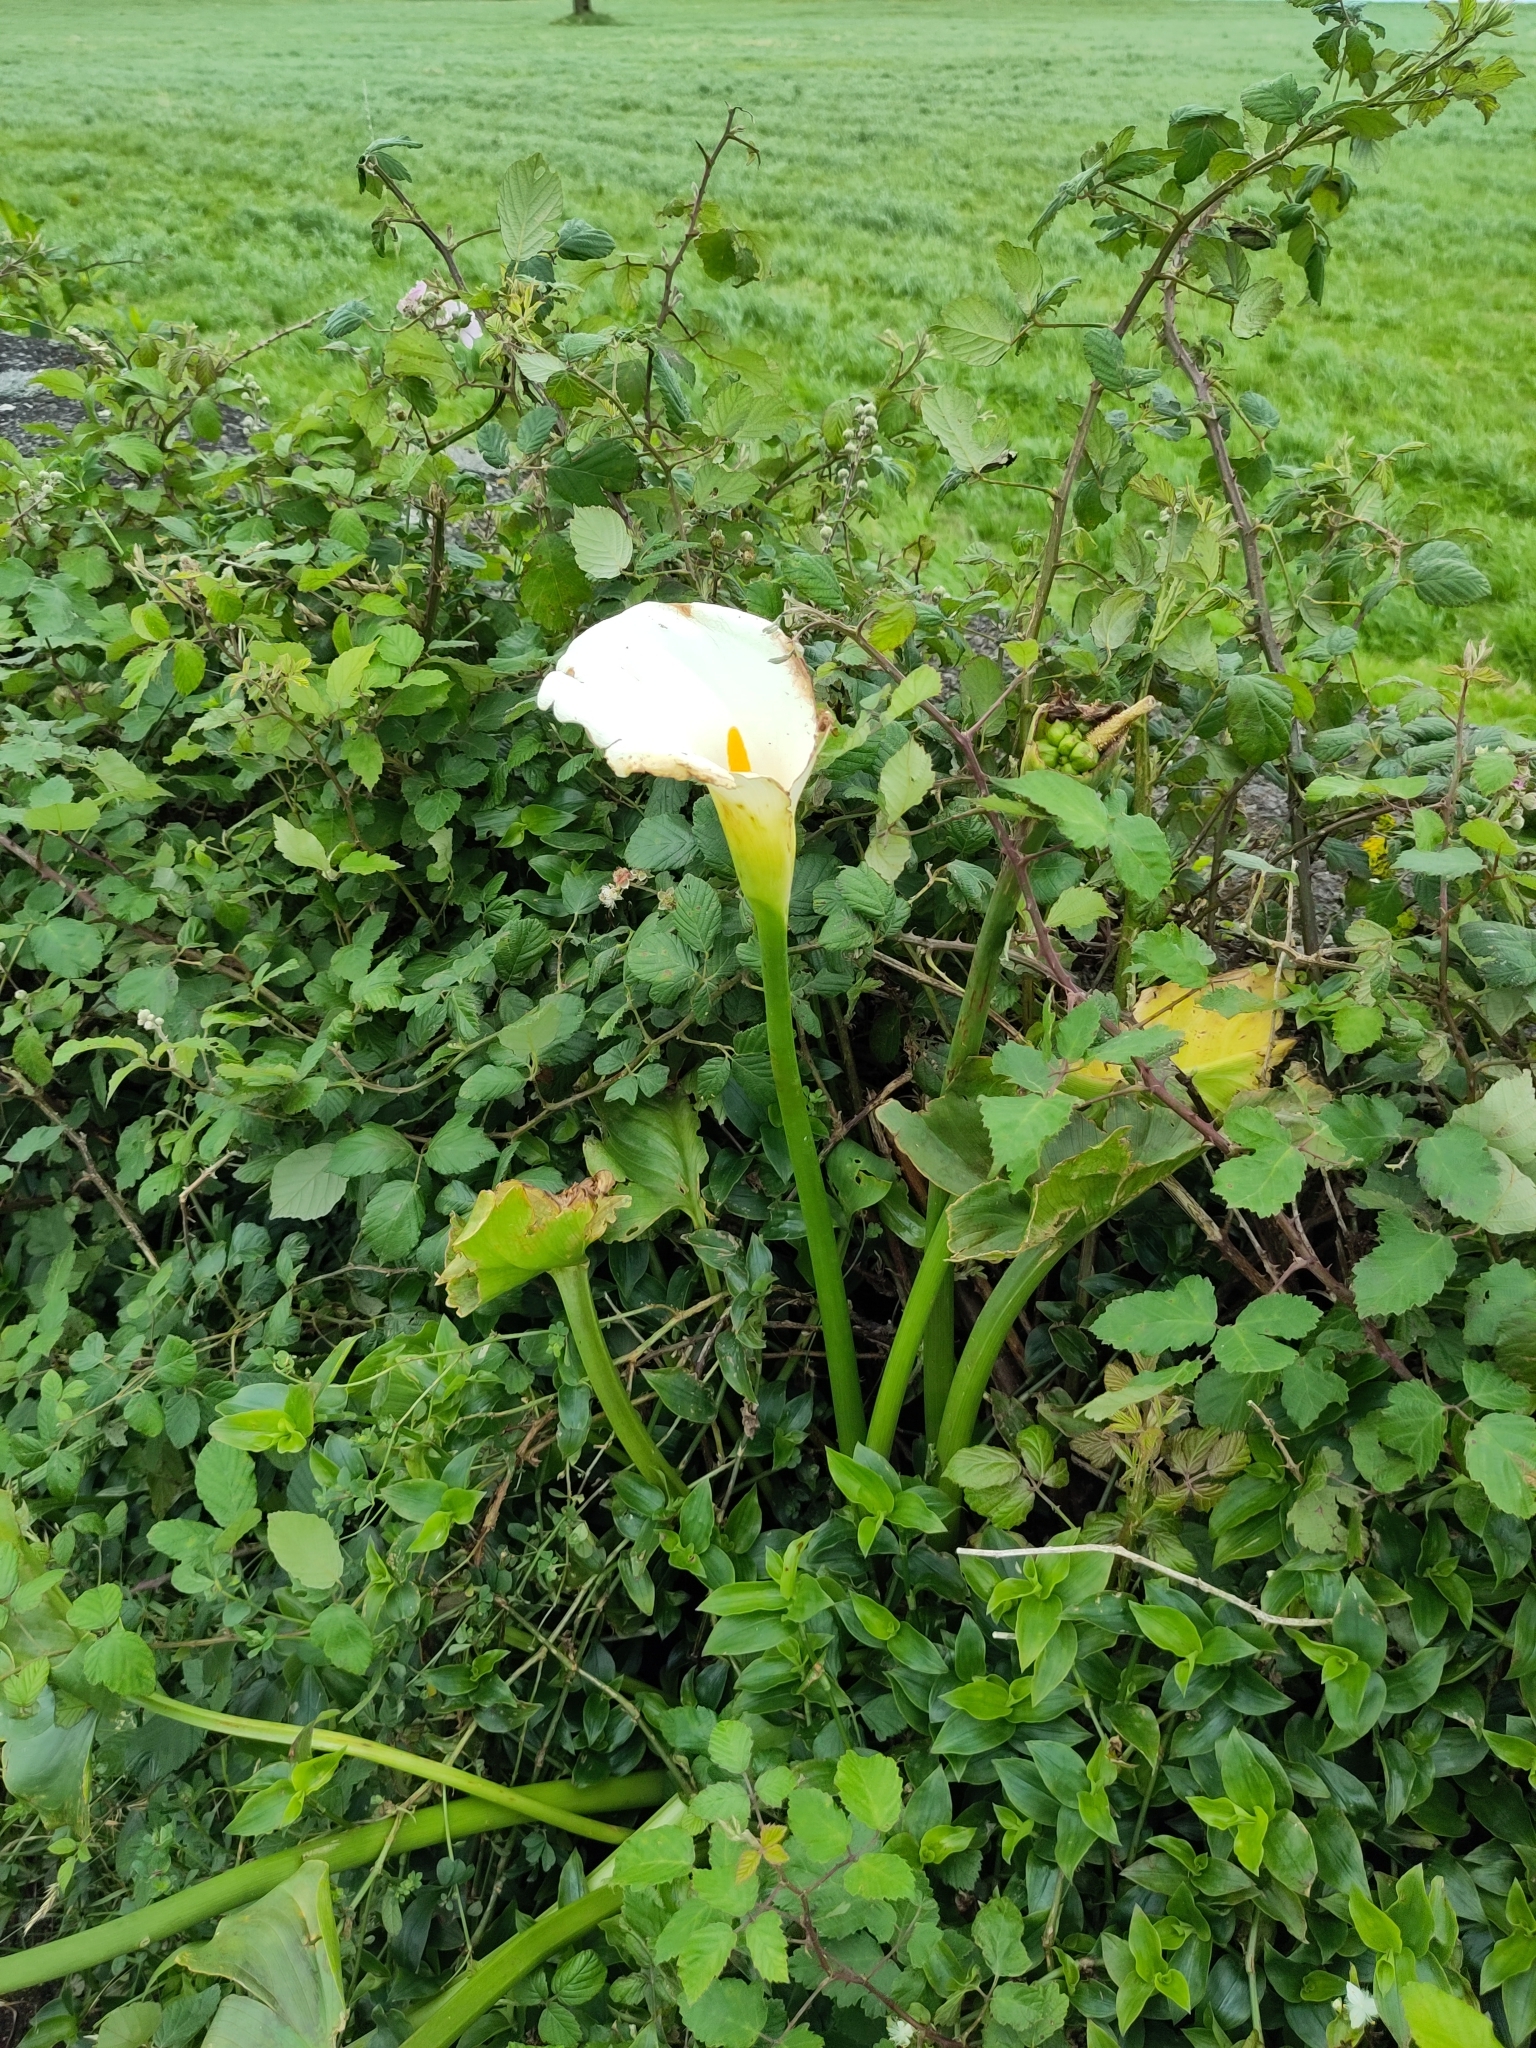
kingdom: Plantae
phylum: Tracheophyta
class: Liliopsida
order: Alismatales
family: Araceae
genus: Zantedeschia
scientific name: Zantedeschia aethiopica
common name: Altar-lily
